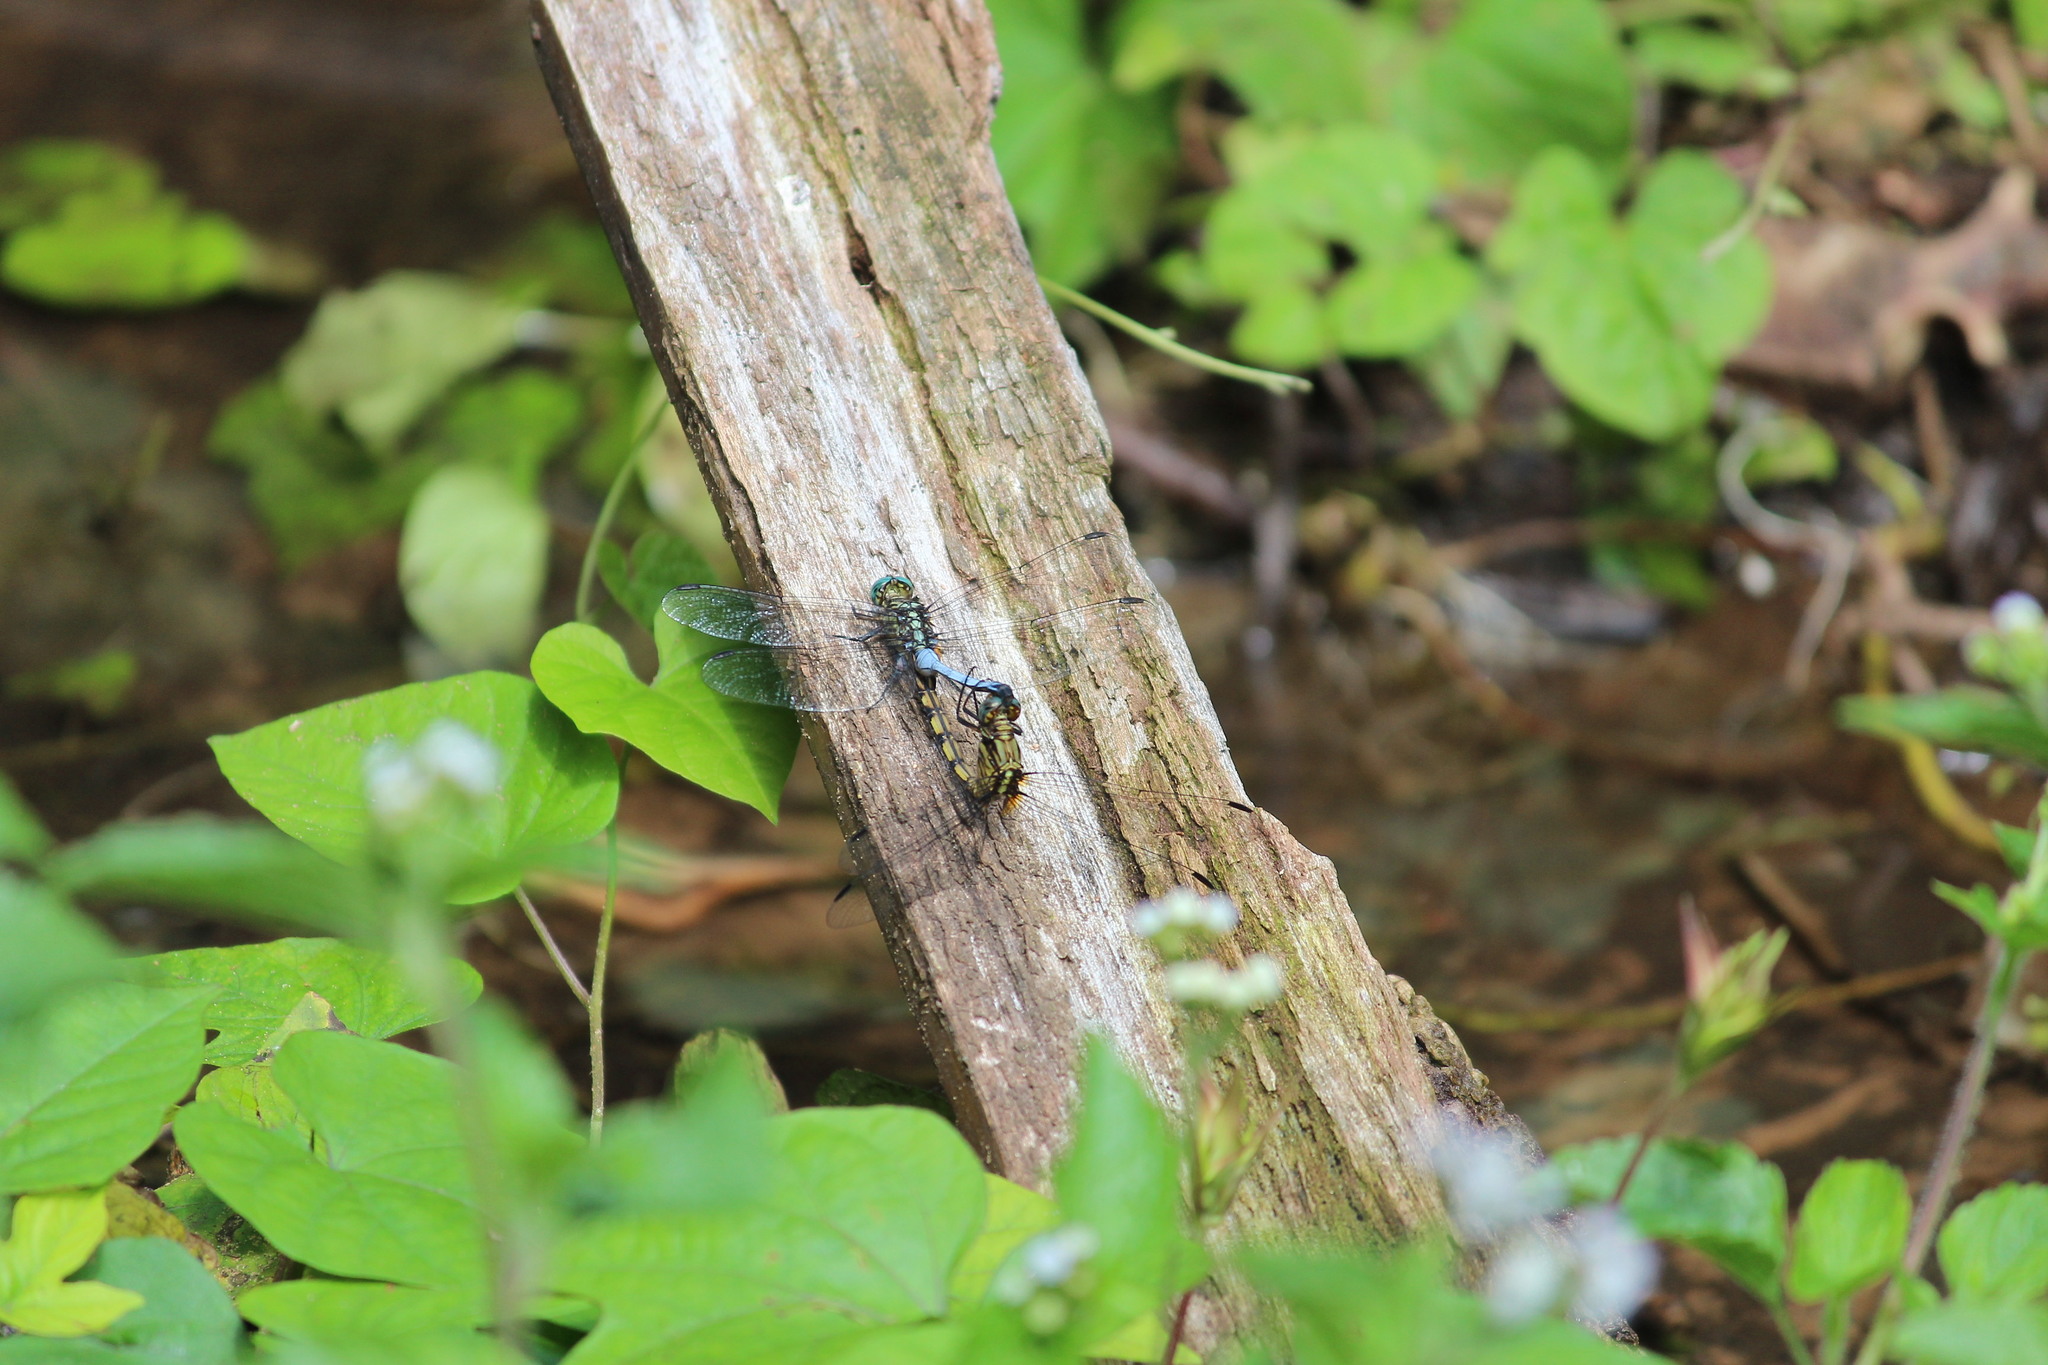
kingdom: Animalia
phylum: Arthropoda
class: Insecta
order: Odonata
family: Libellulidae
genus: Orthetrum
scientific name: Orthetrum julia
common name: Julia skimmer
